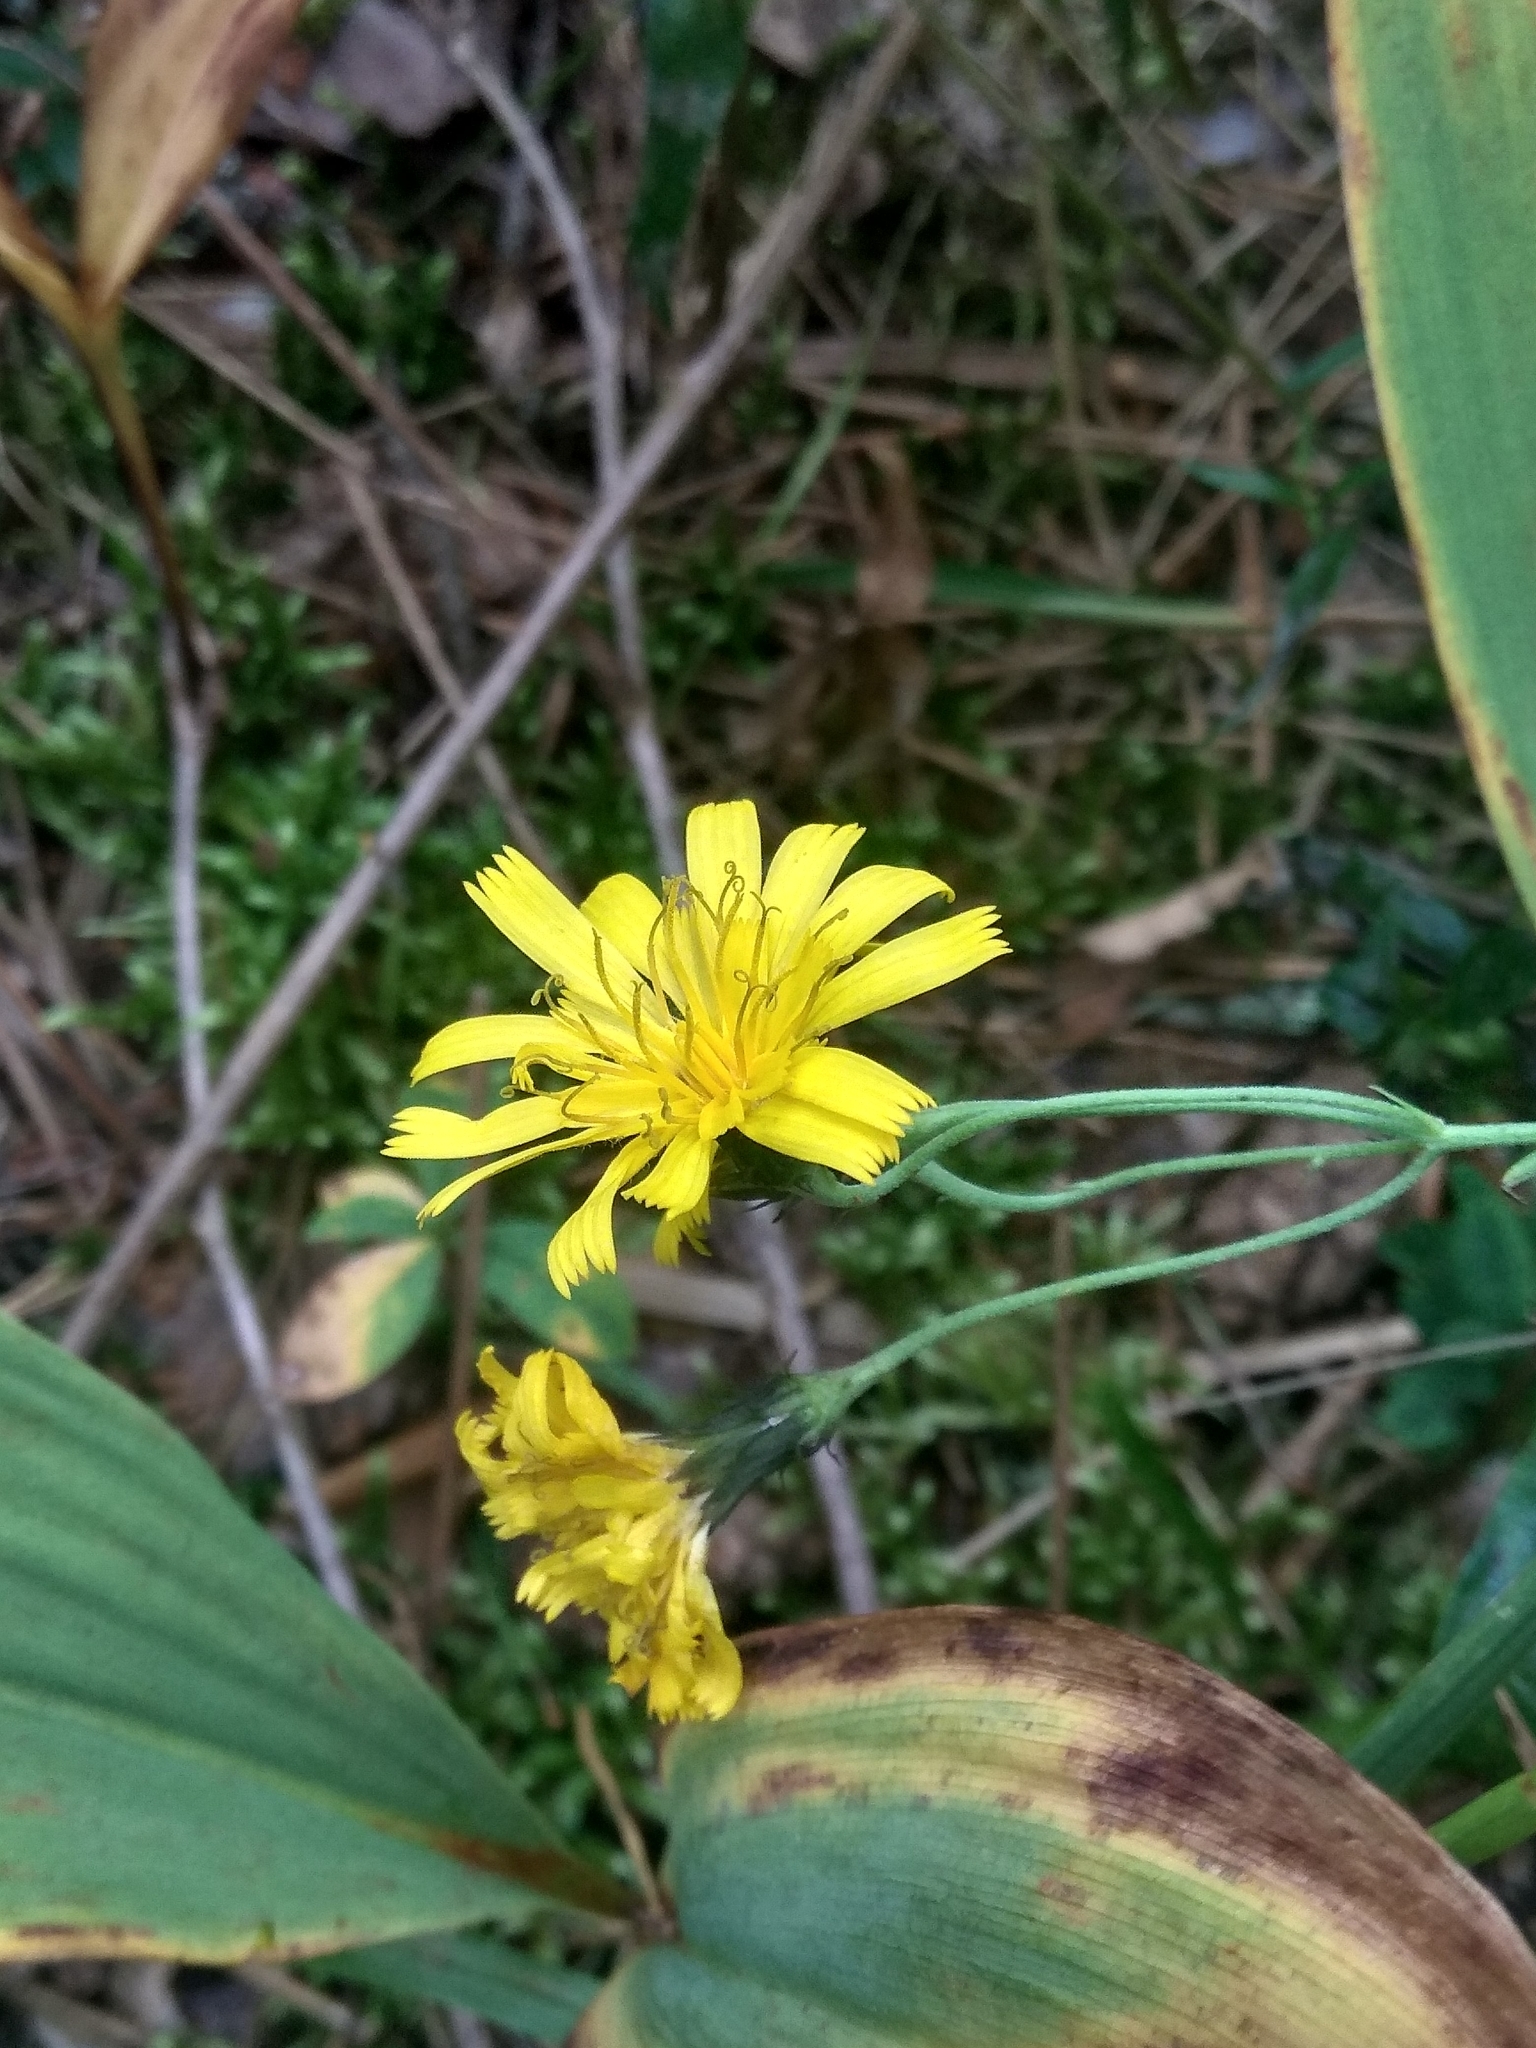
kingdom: Plantae
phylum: Tracheophyta
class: Magnoliopsida
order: Asterales
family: Asteraceae
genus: Hieracium
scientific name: Hieracium umbellatum
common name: Northern hawkweed
